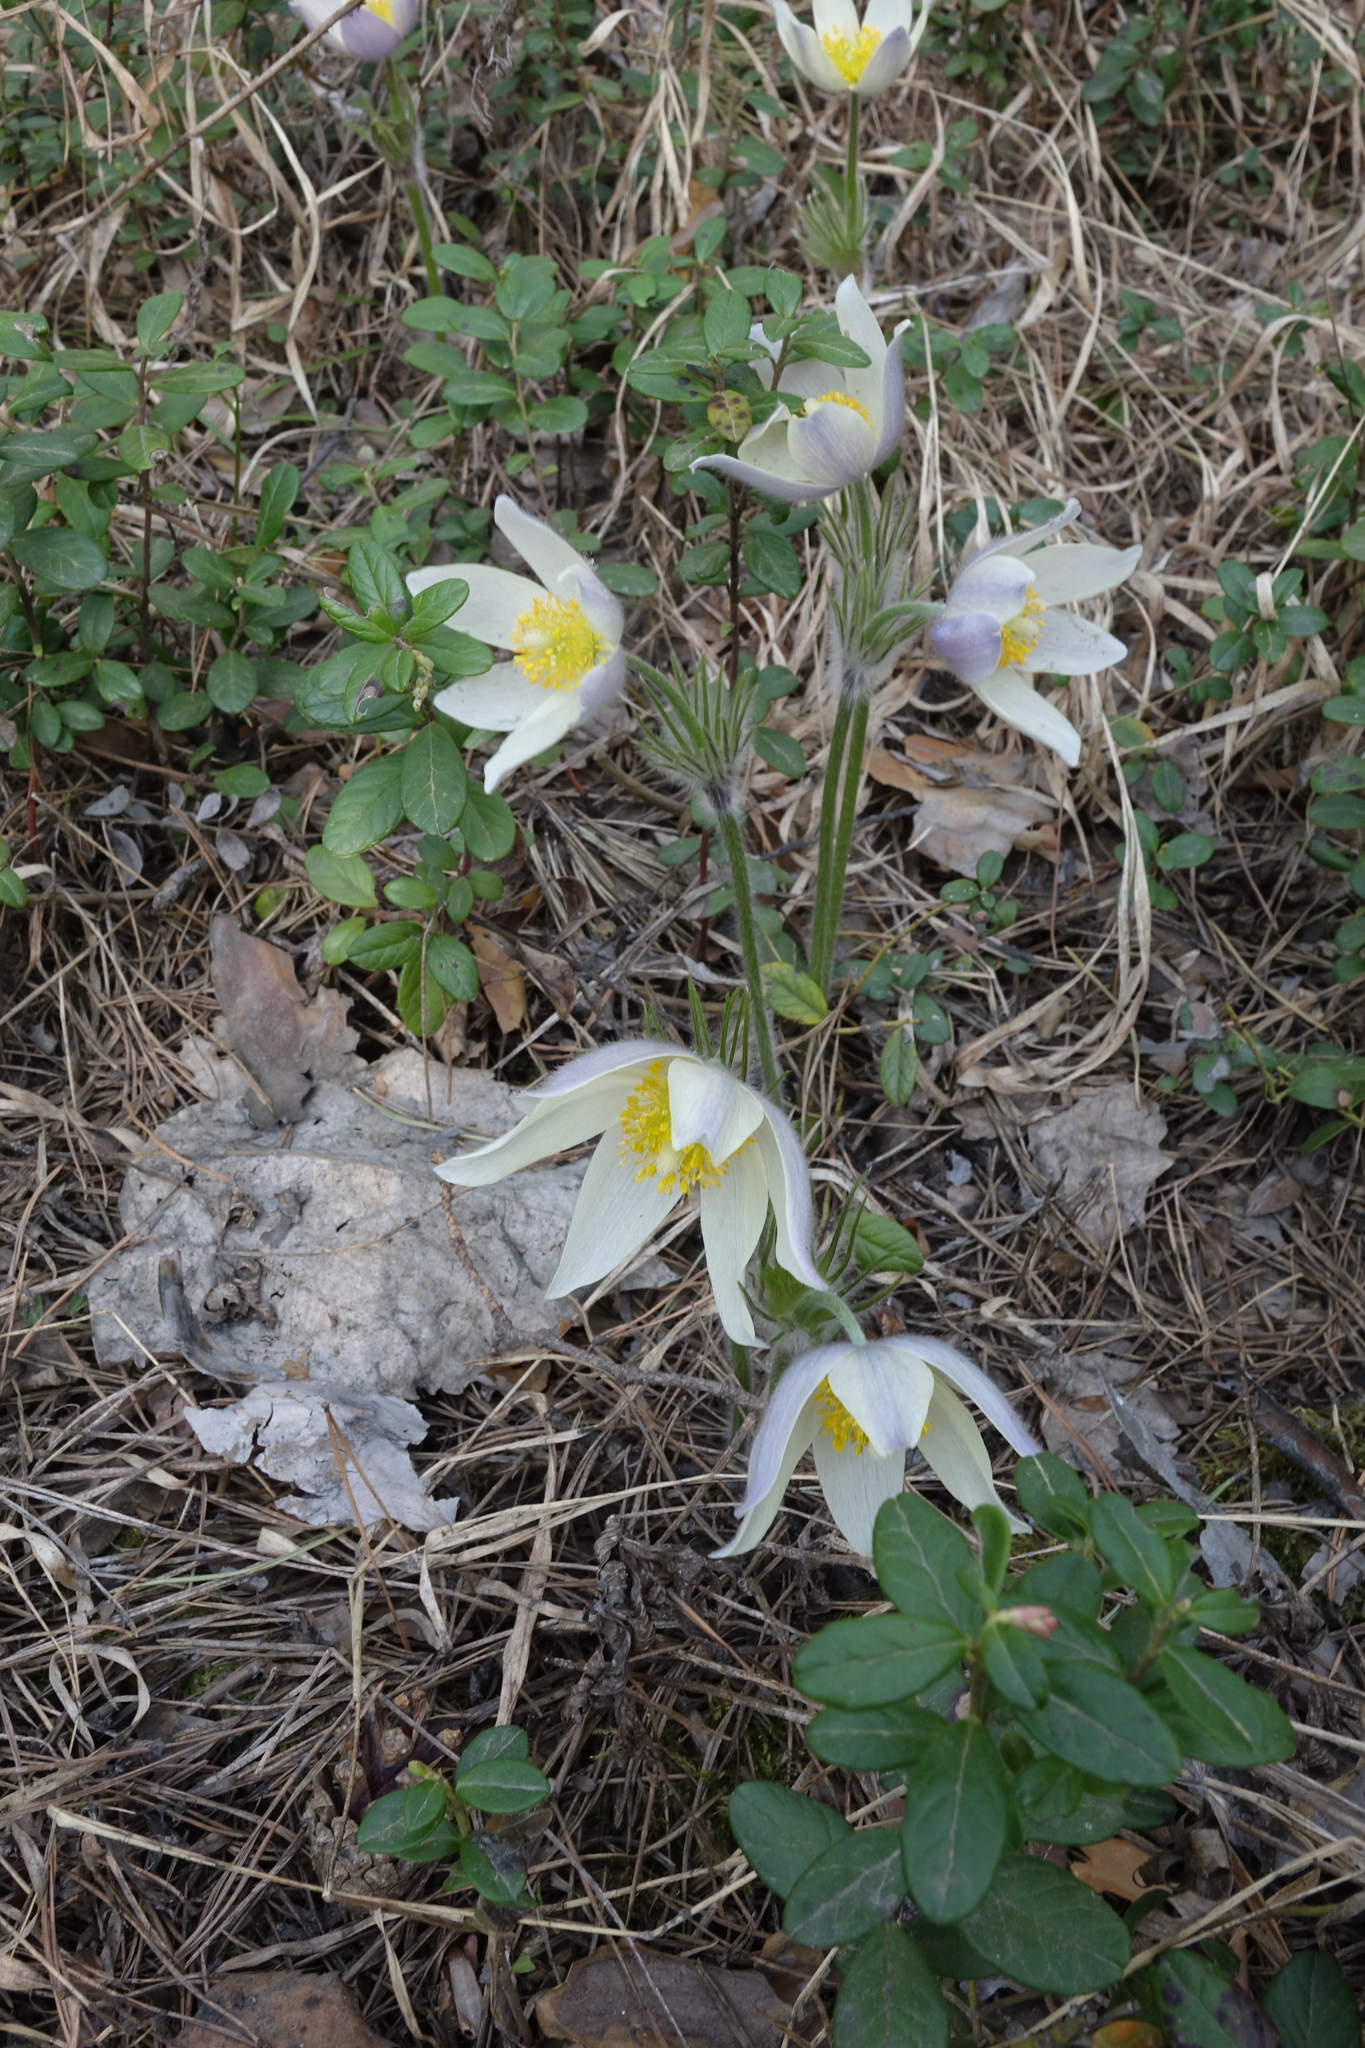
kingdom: Plantae
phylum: Tracheophyta
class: Magnoliopsida
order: Ranunculales
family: Ranunculaceae
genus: Pulsatilla
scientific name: Pulsatilla patens
